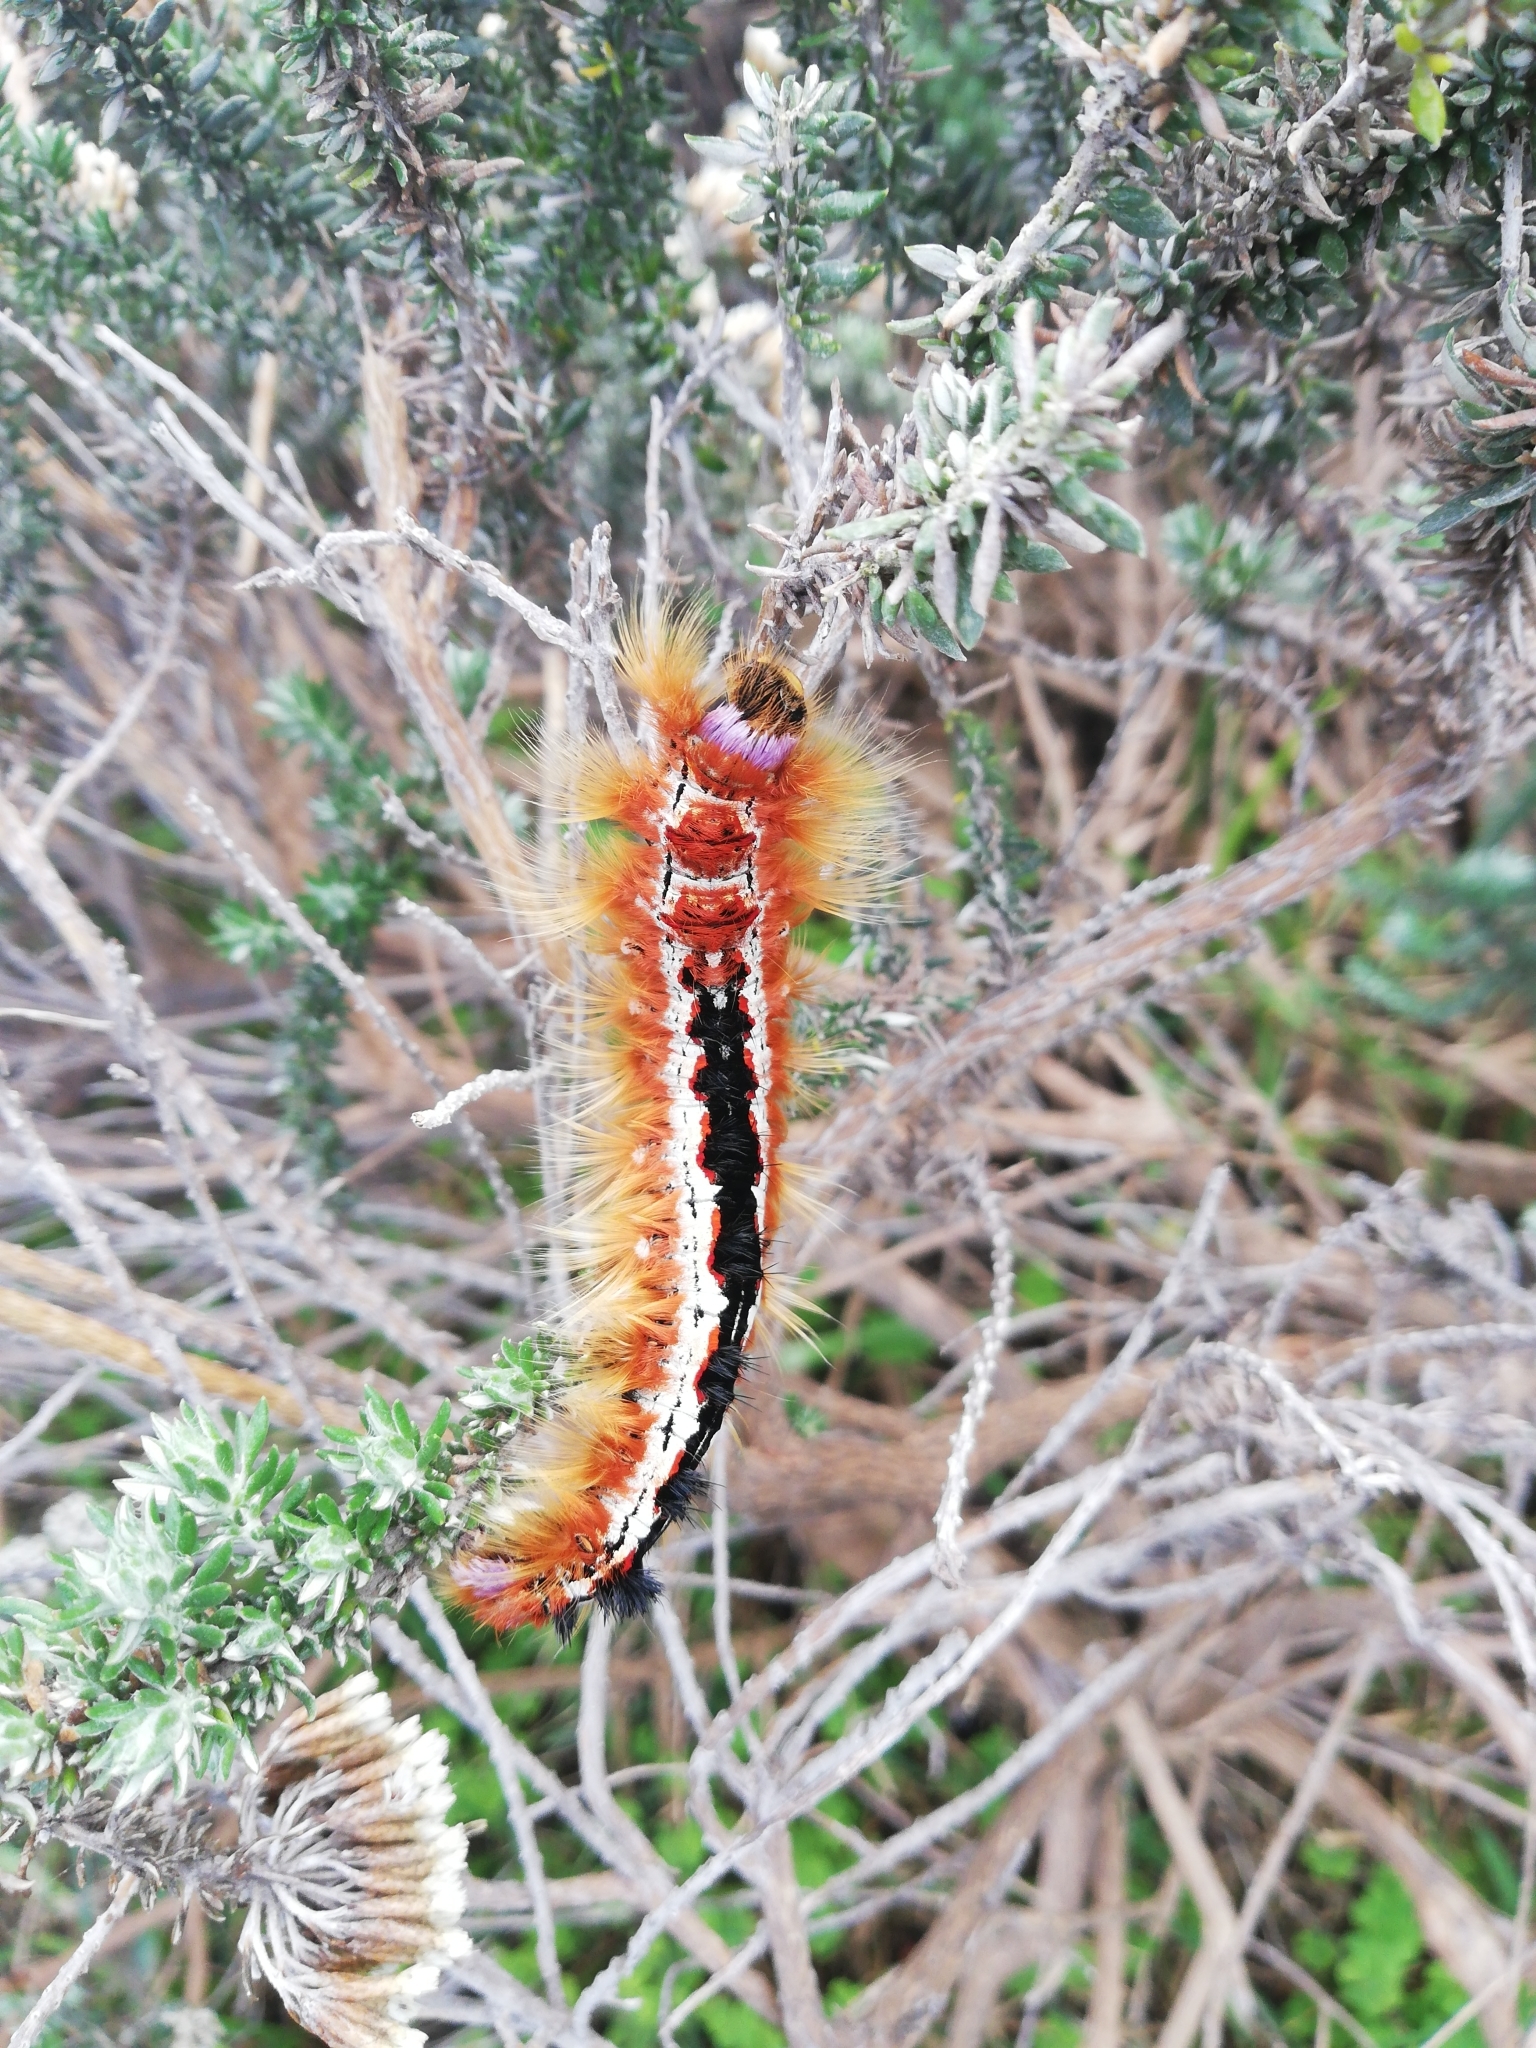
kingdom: Animalia
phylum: Arthropoda
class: Insecta
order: Lepidoptera
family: Lasiocampidae
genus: Eutricha
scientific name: Eutricha capensis
